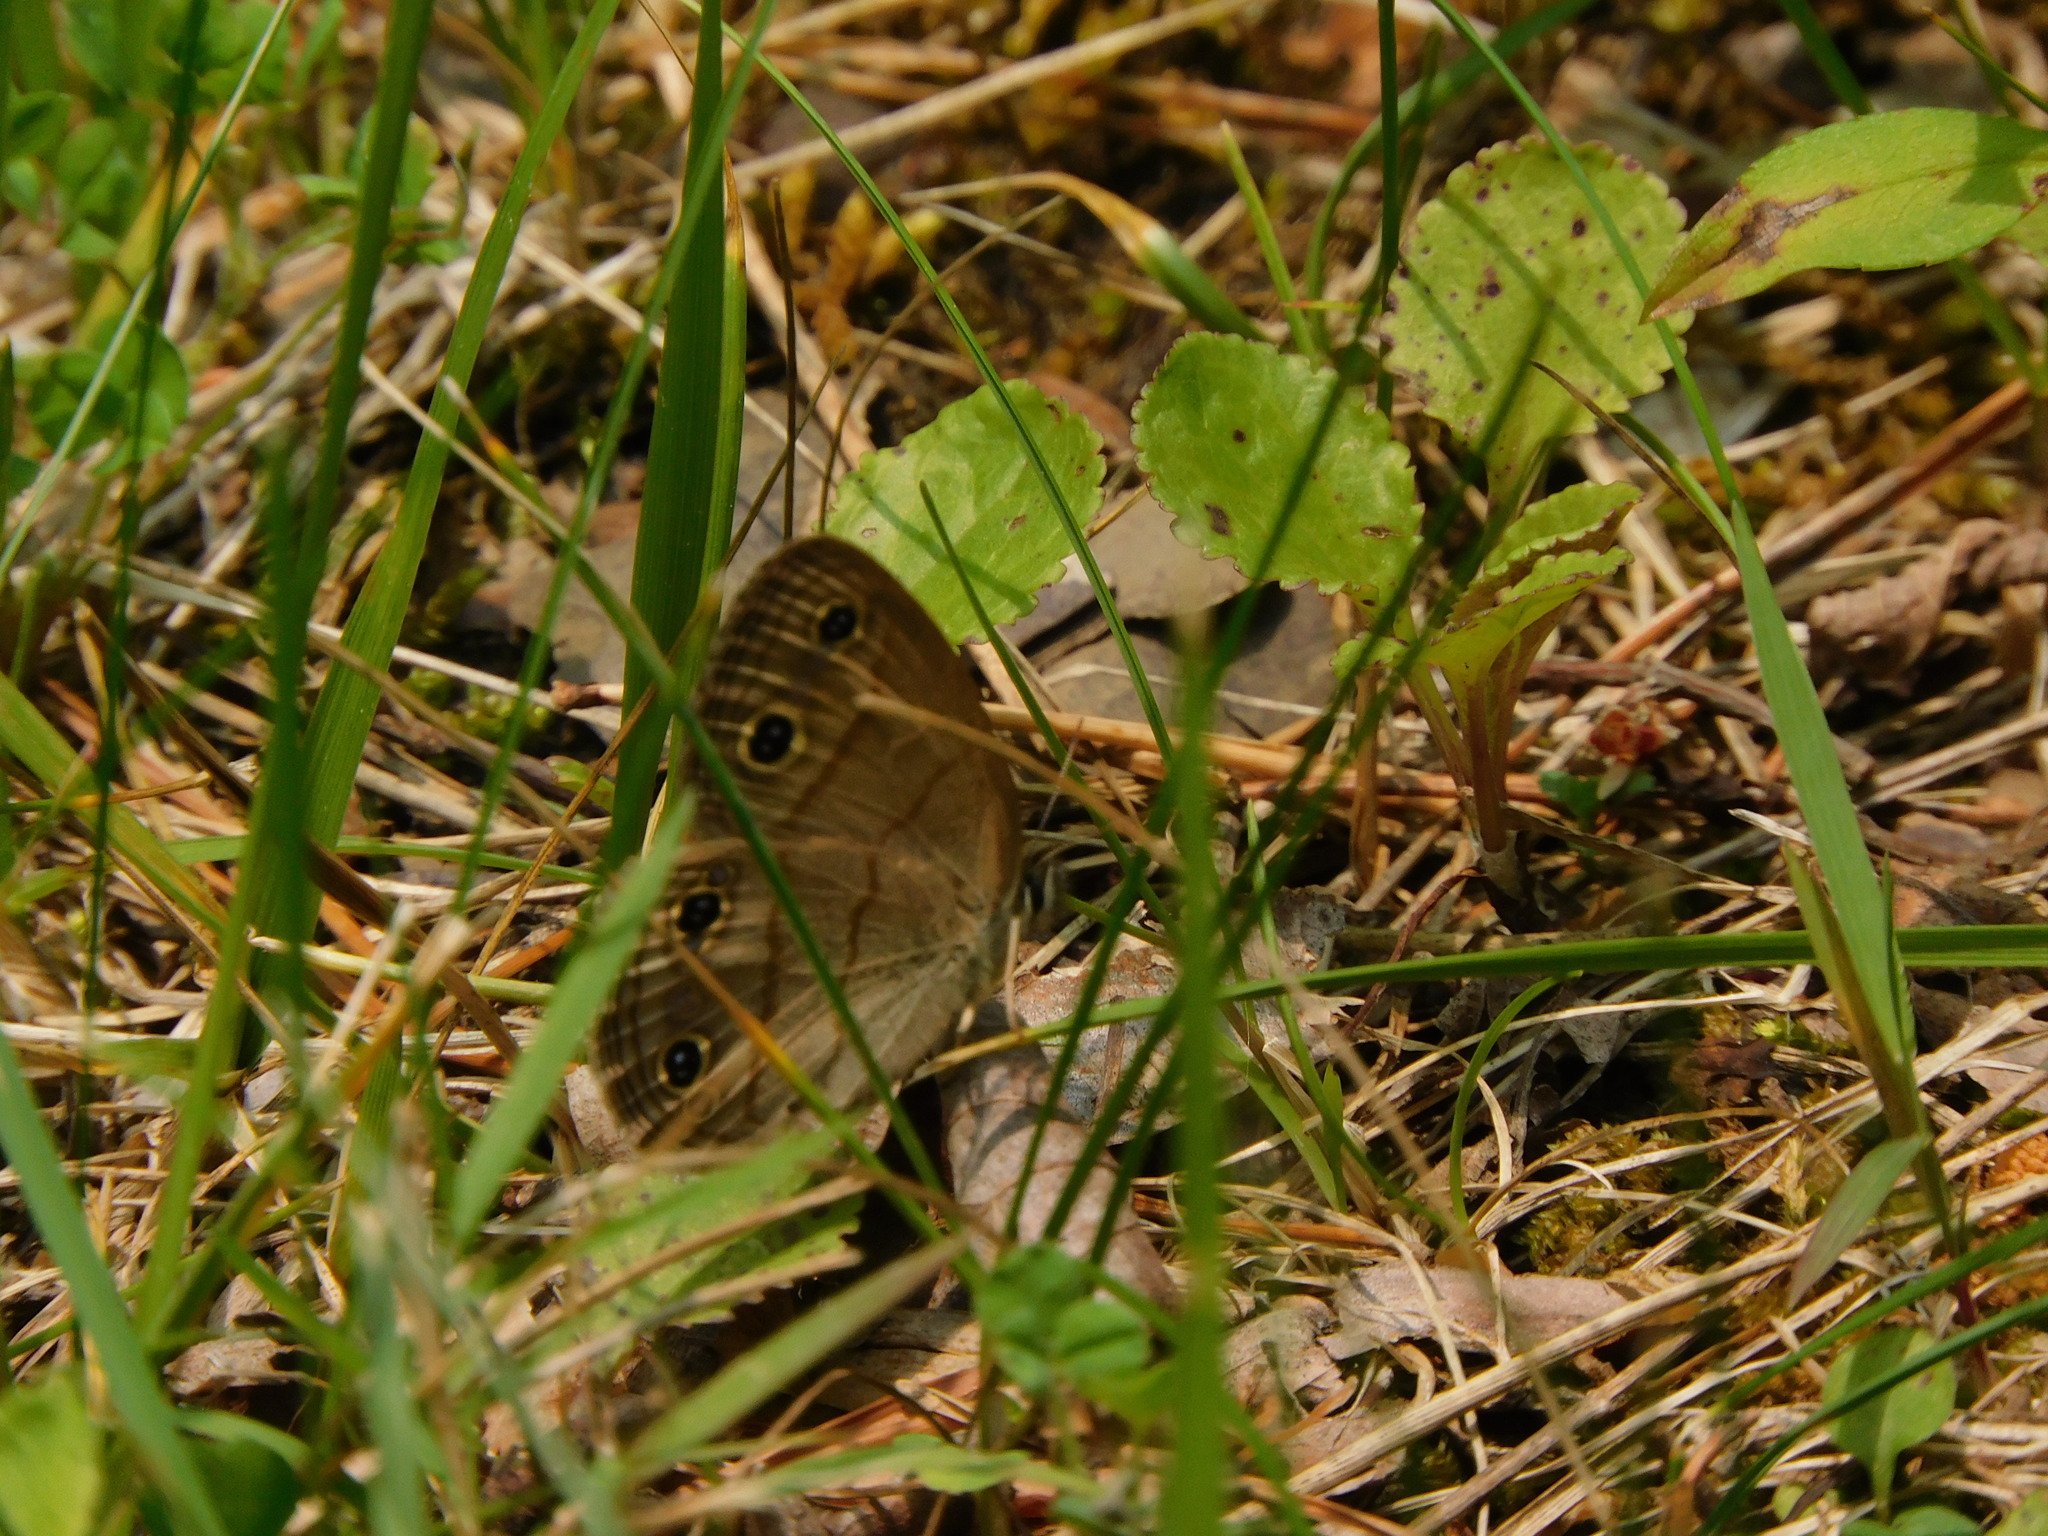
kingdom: Animalia
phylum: Arthropoda
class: Insecta
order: Lepidoptera
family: Nymphalidae
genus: Euptychia
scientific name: Euptychia cymela
